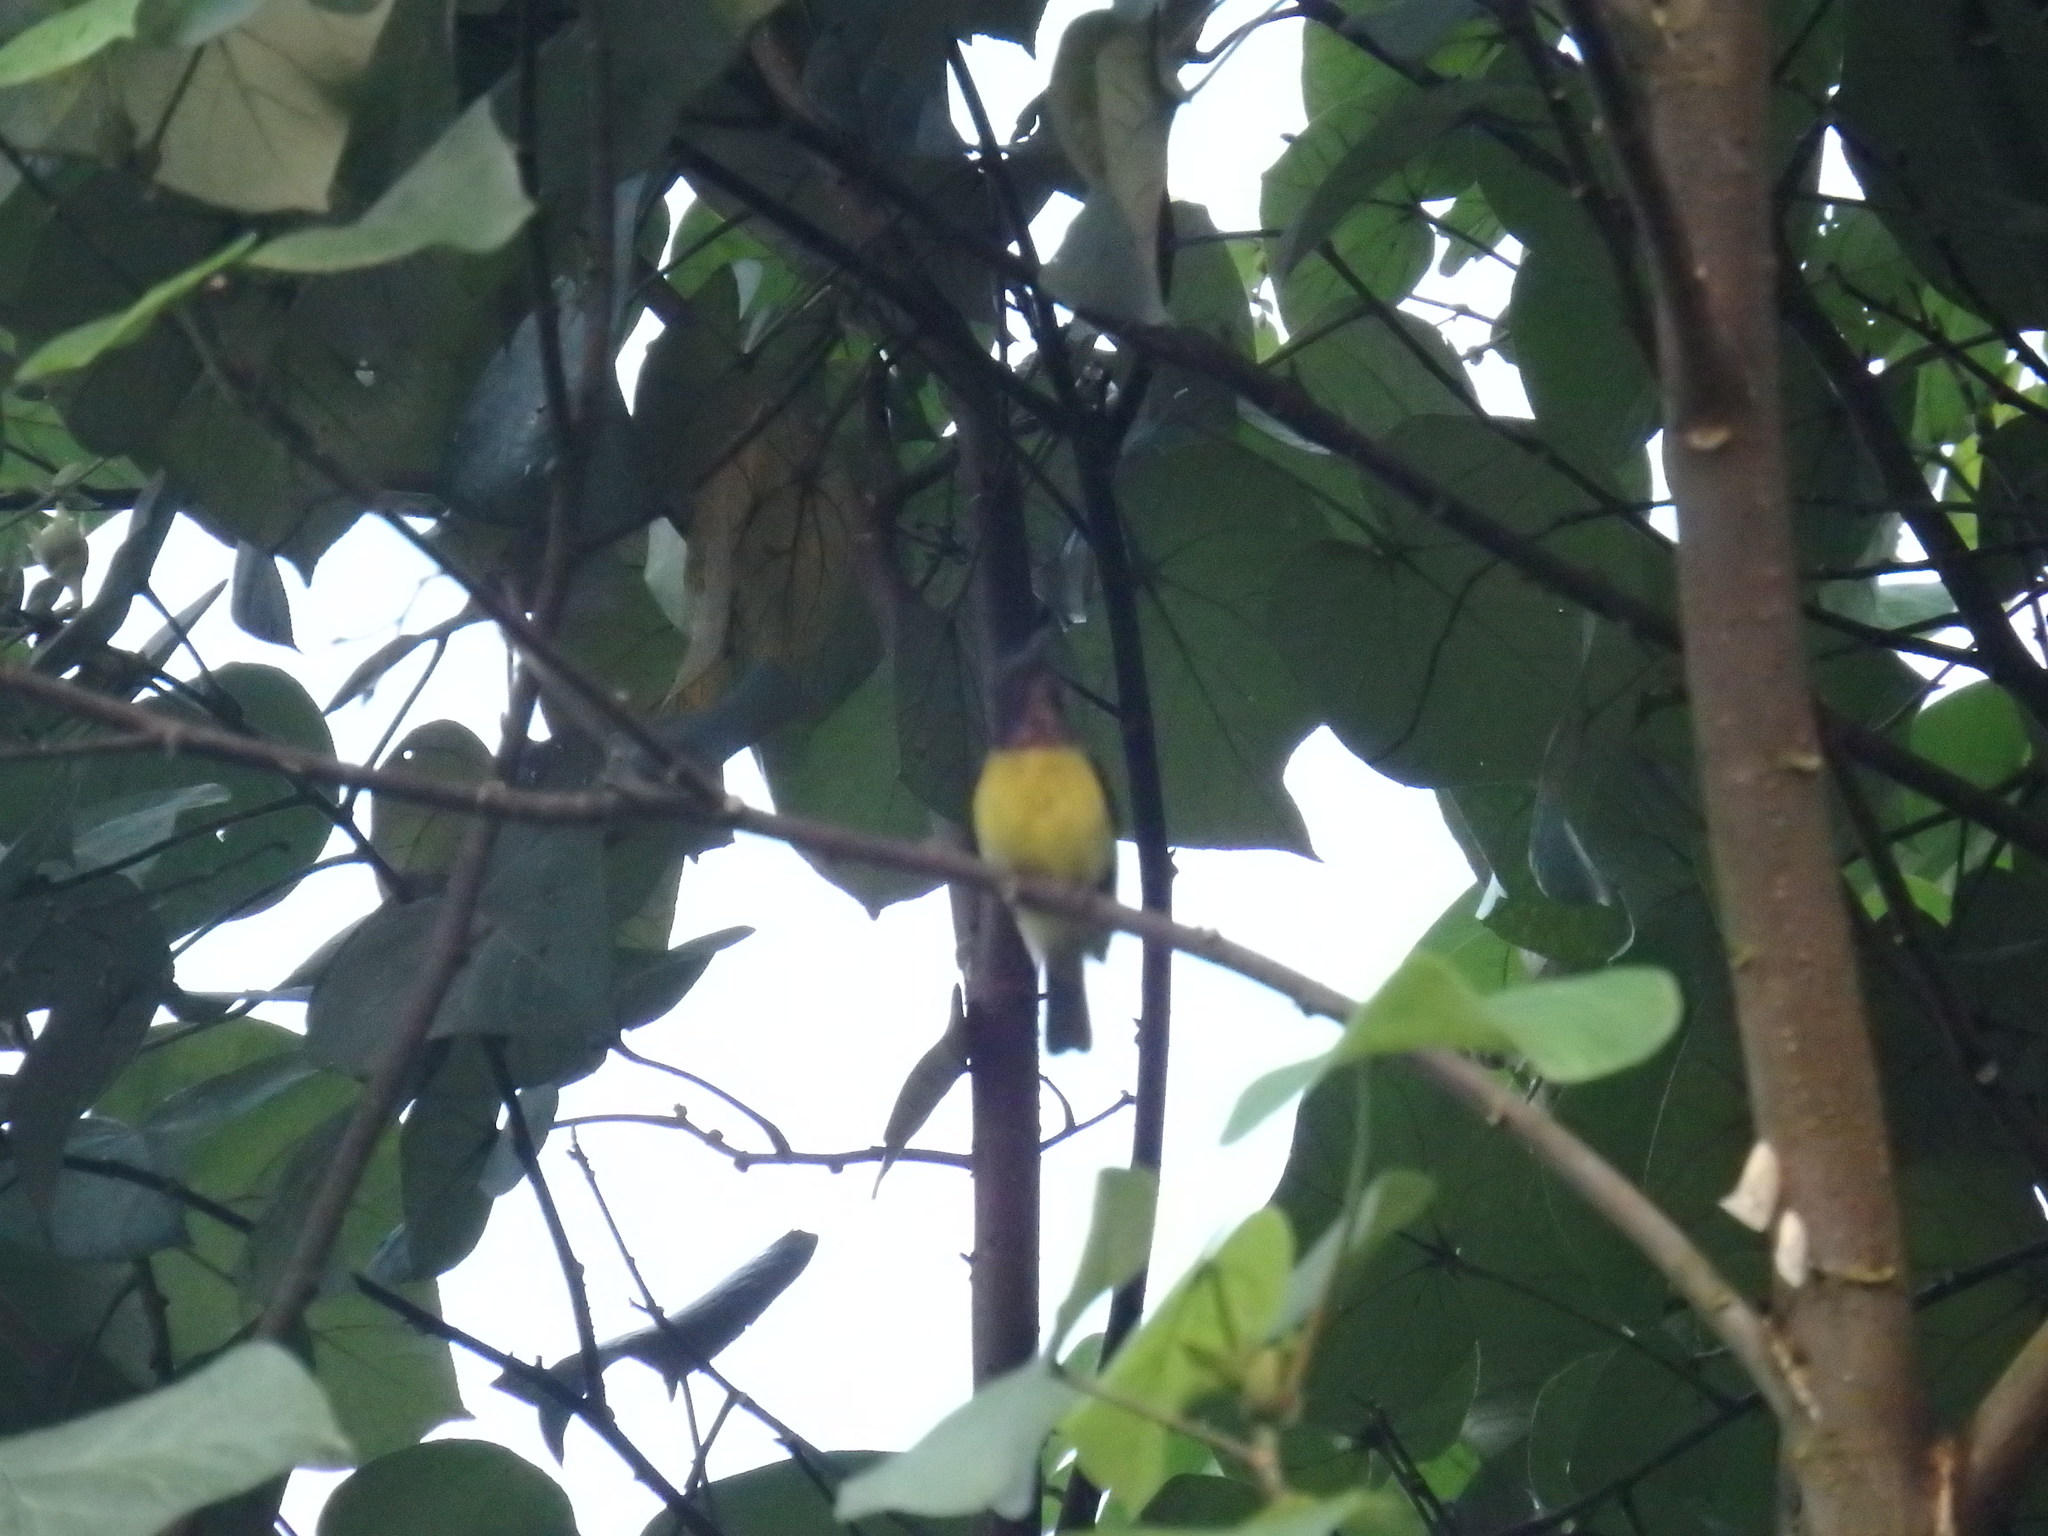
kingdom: Animalia
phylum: Chordata
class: Aves
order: Passeriformes
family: Nectariniidae
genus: Anthreptes
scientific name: Anthreptes malacensis
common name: Brown-throated sunbird
